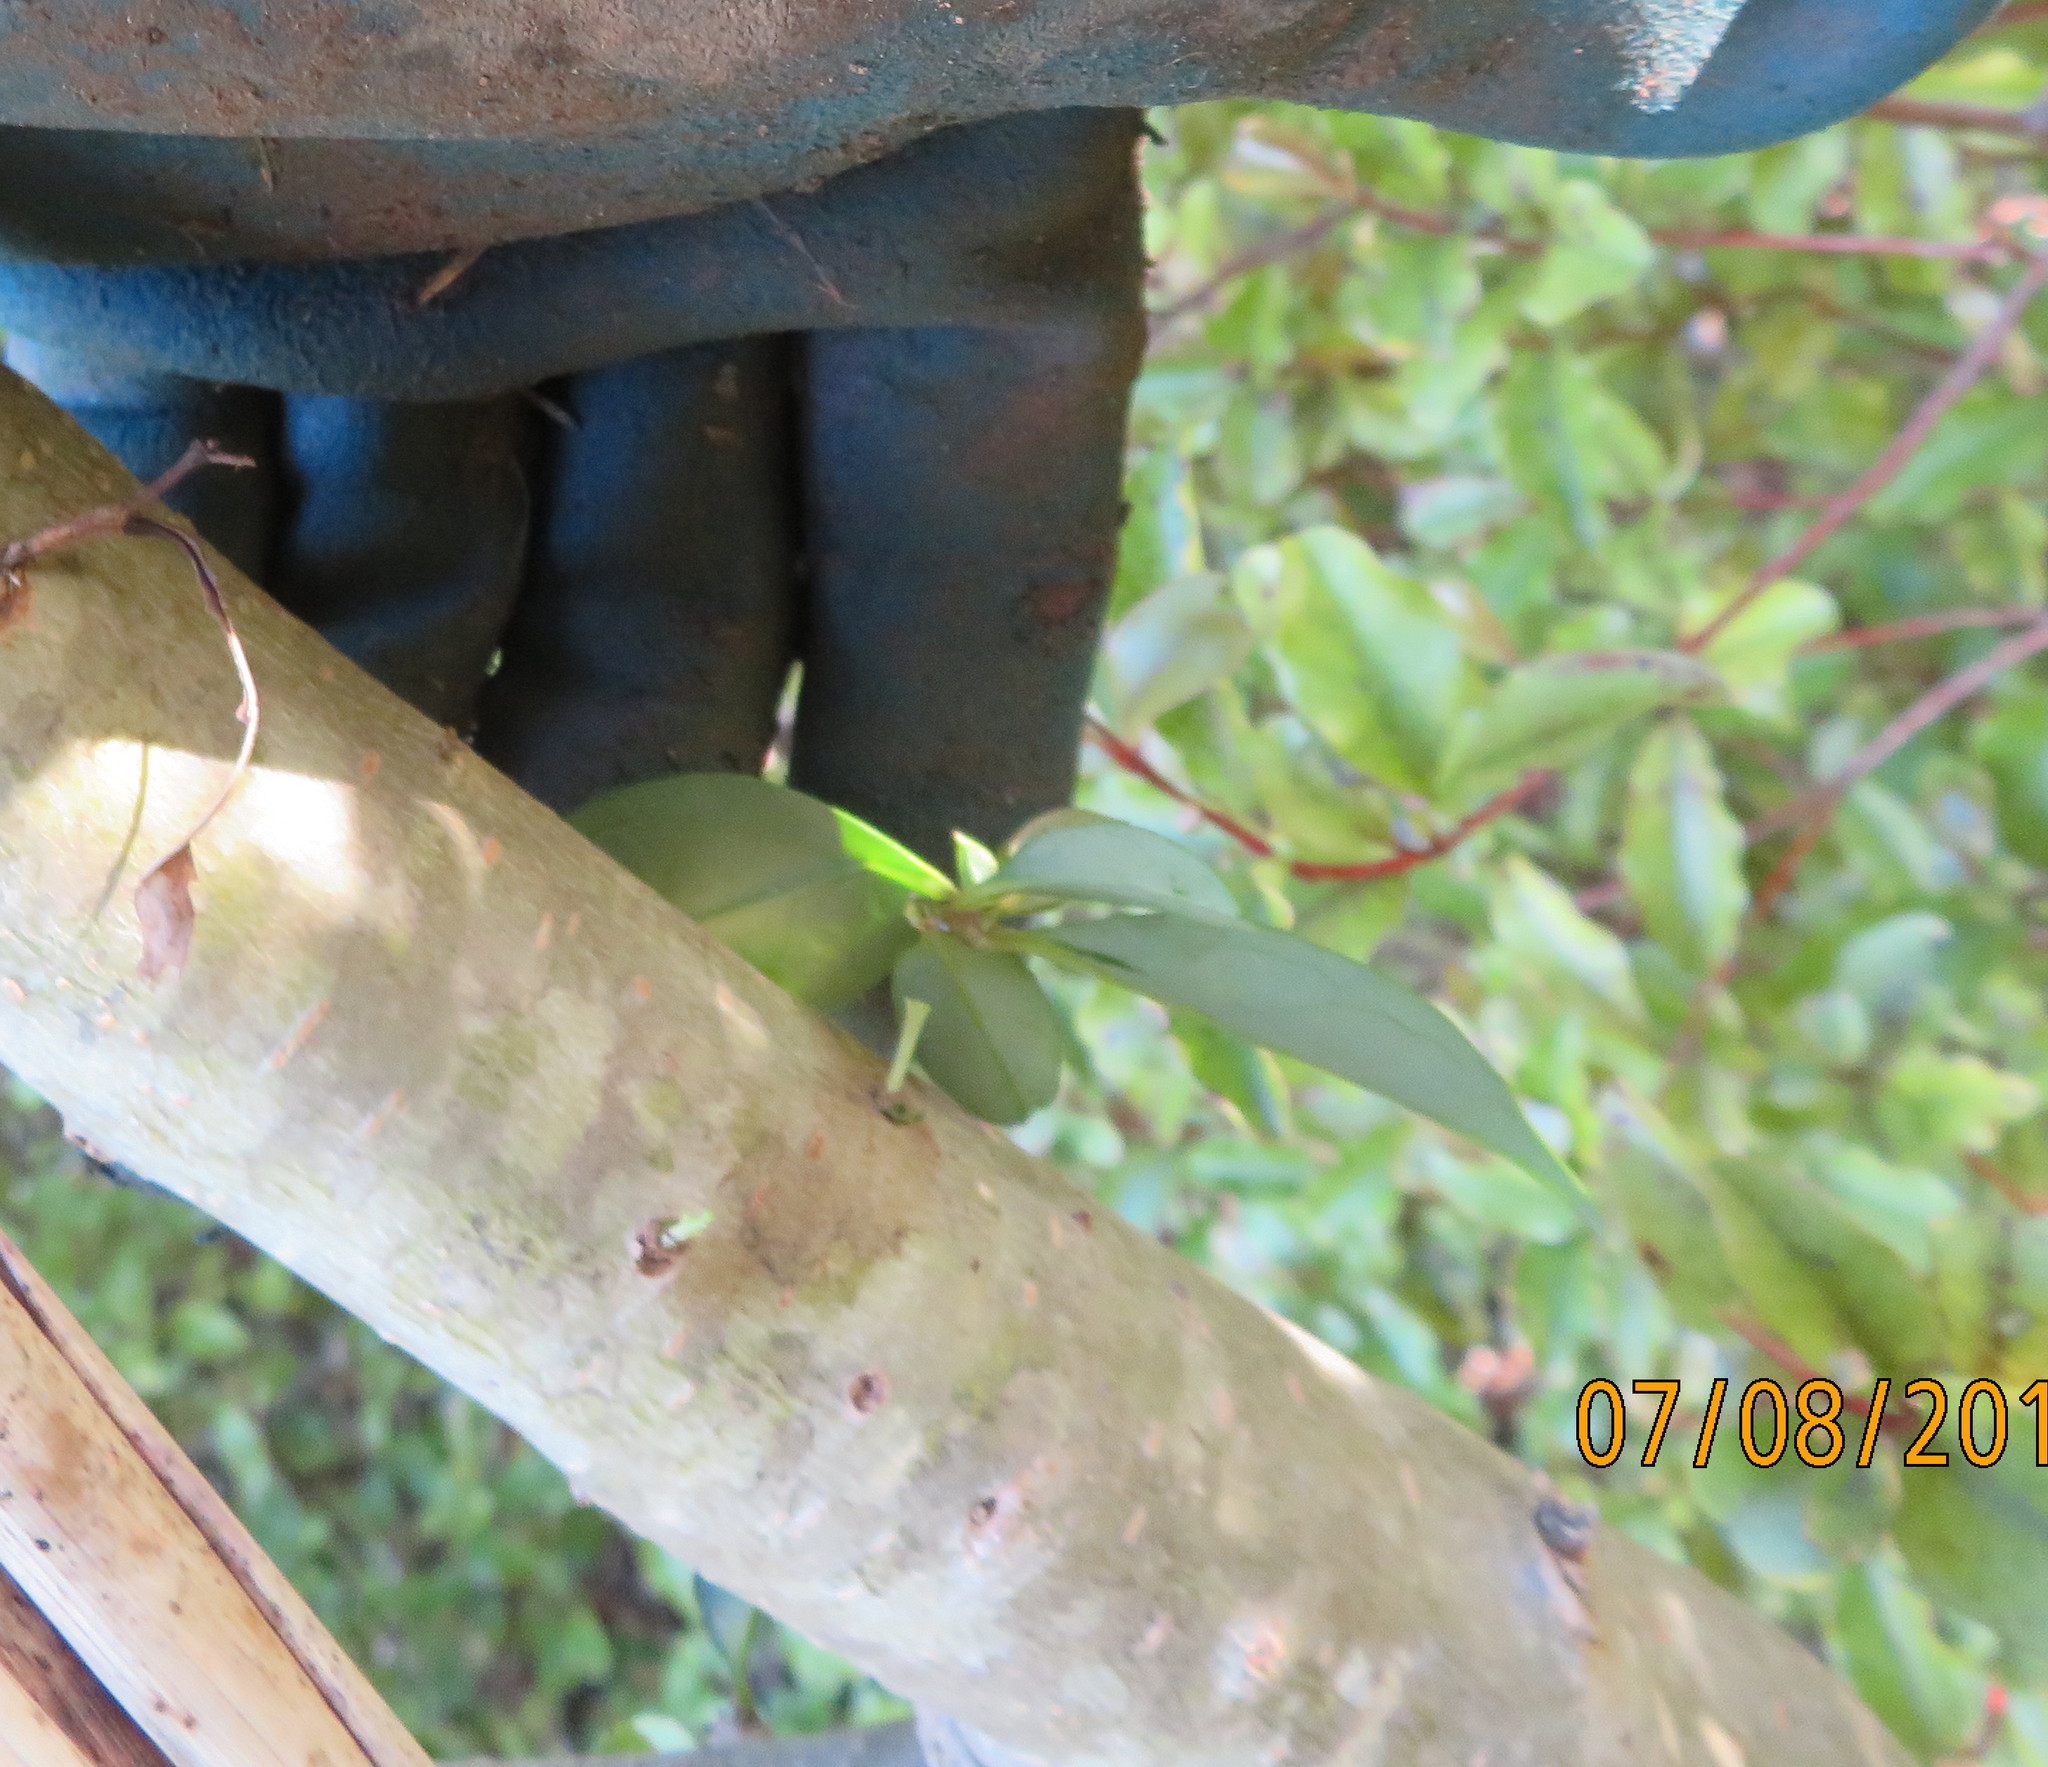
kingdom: Plantae
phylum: Tracheophyta
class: Magnoliopsida
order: Lamiales
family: Oleaceae
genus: Ligustrum
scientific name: Ligustrum lucidum
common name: Glossy privet
